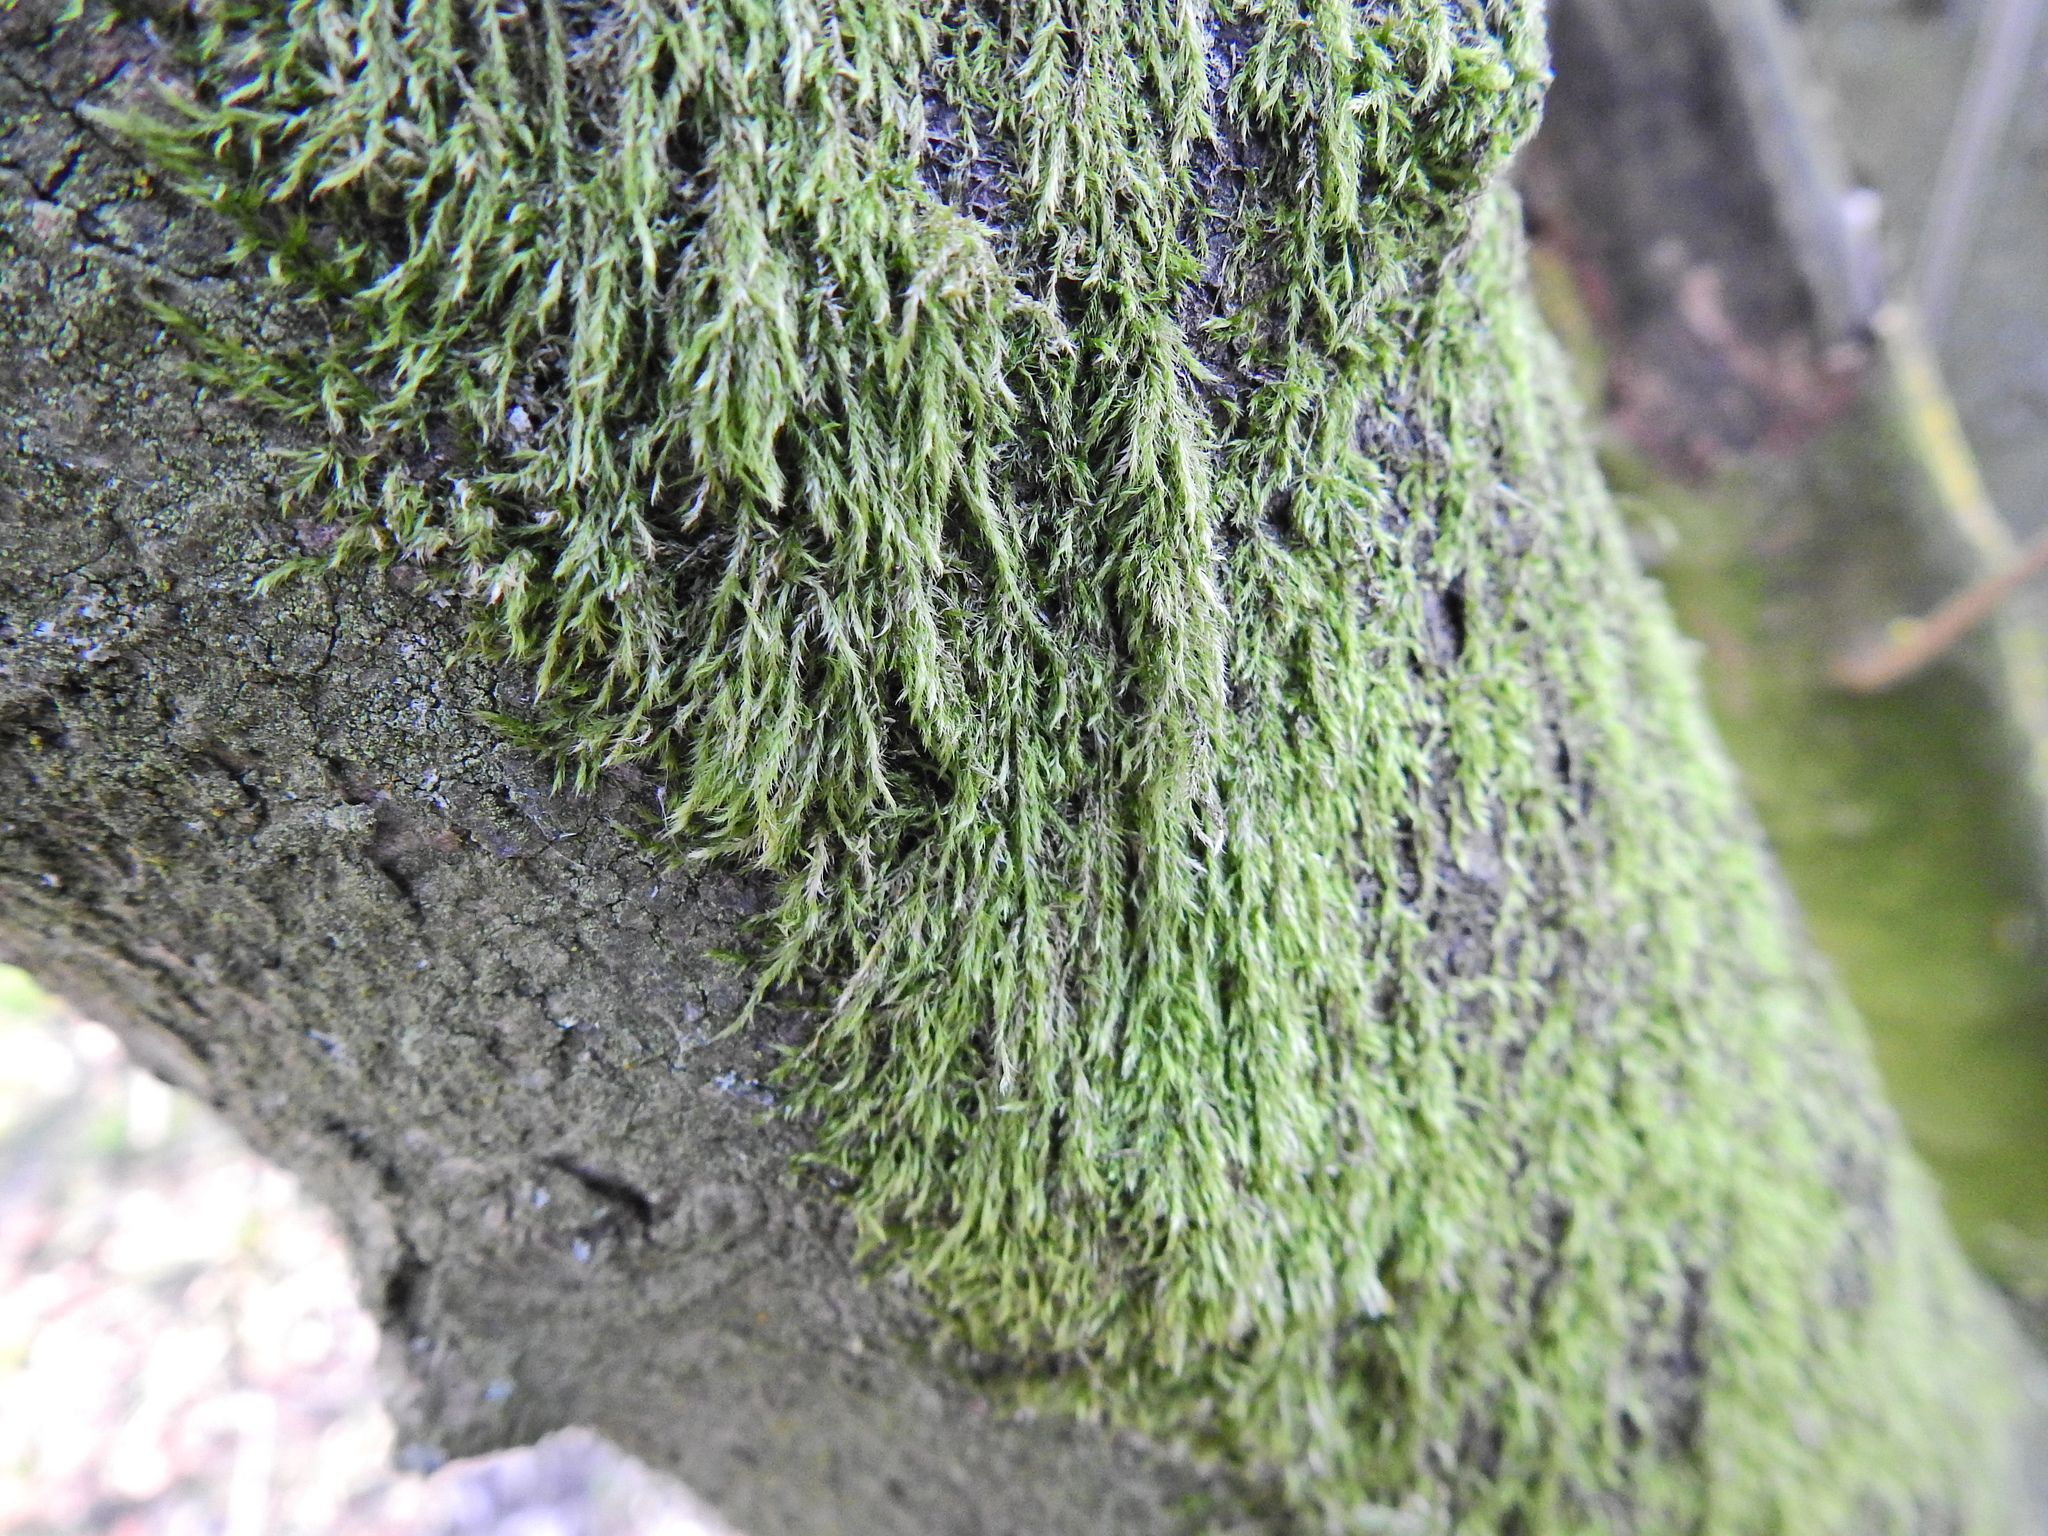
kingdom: Plantae
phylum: Bryophyta
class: Bryopsida
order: Hypnales
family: Hypnaceae
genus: Hypnum
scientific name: Hypnum cupressiforme
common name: Cypress-leaved plait-moss
